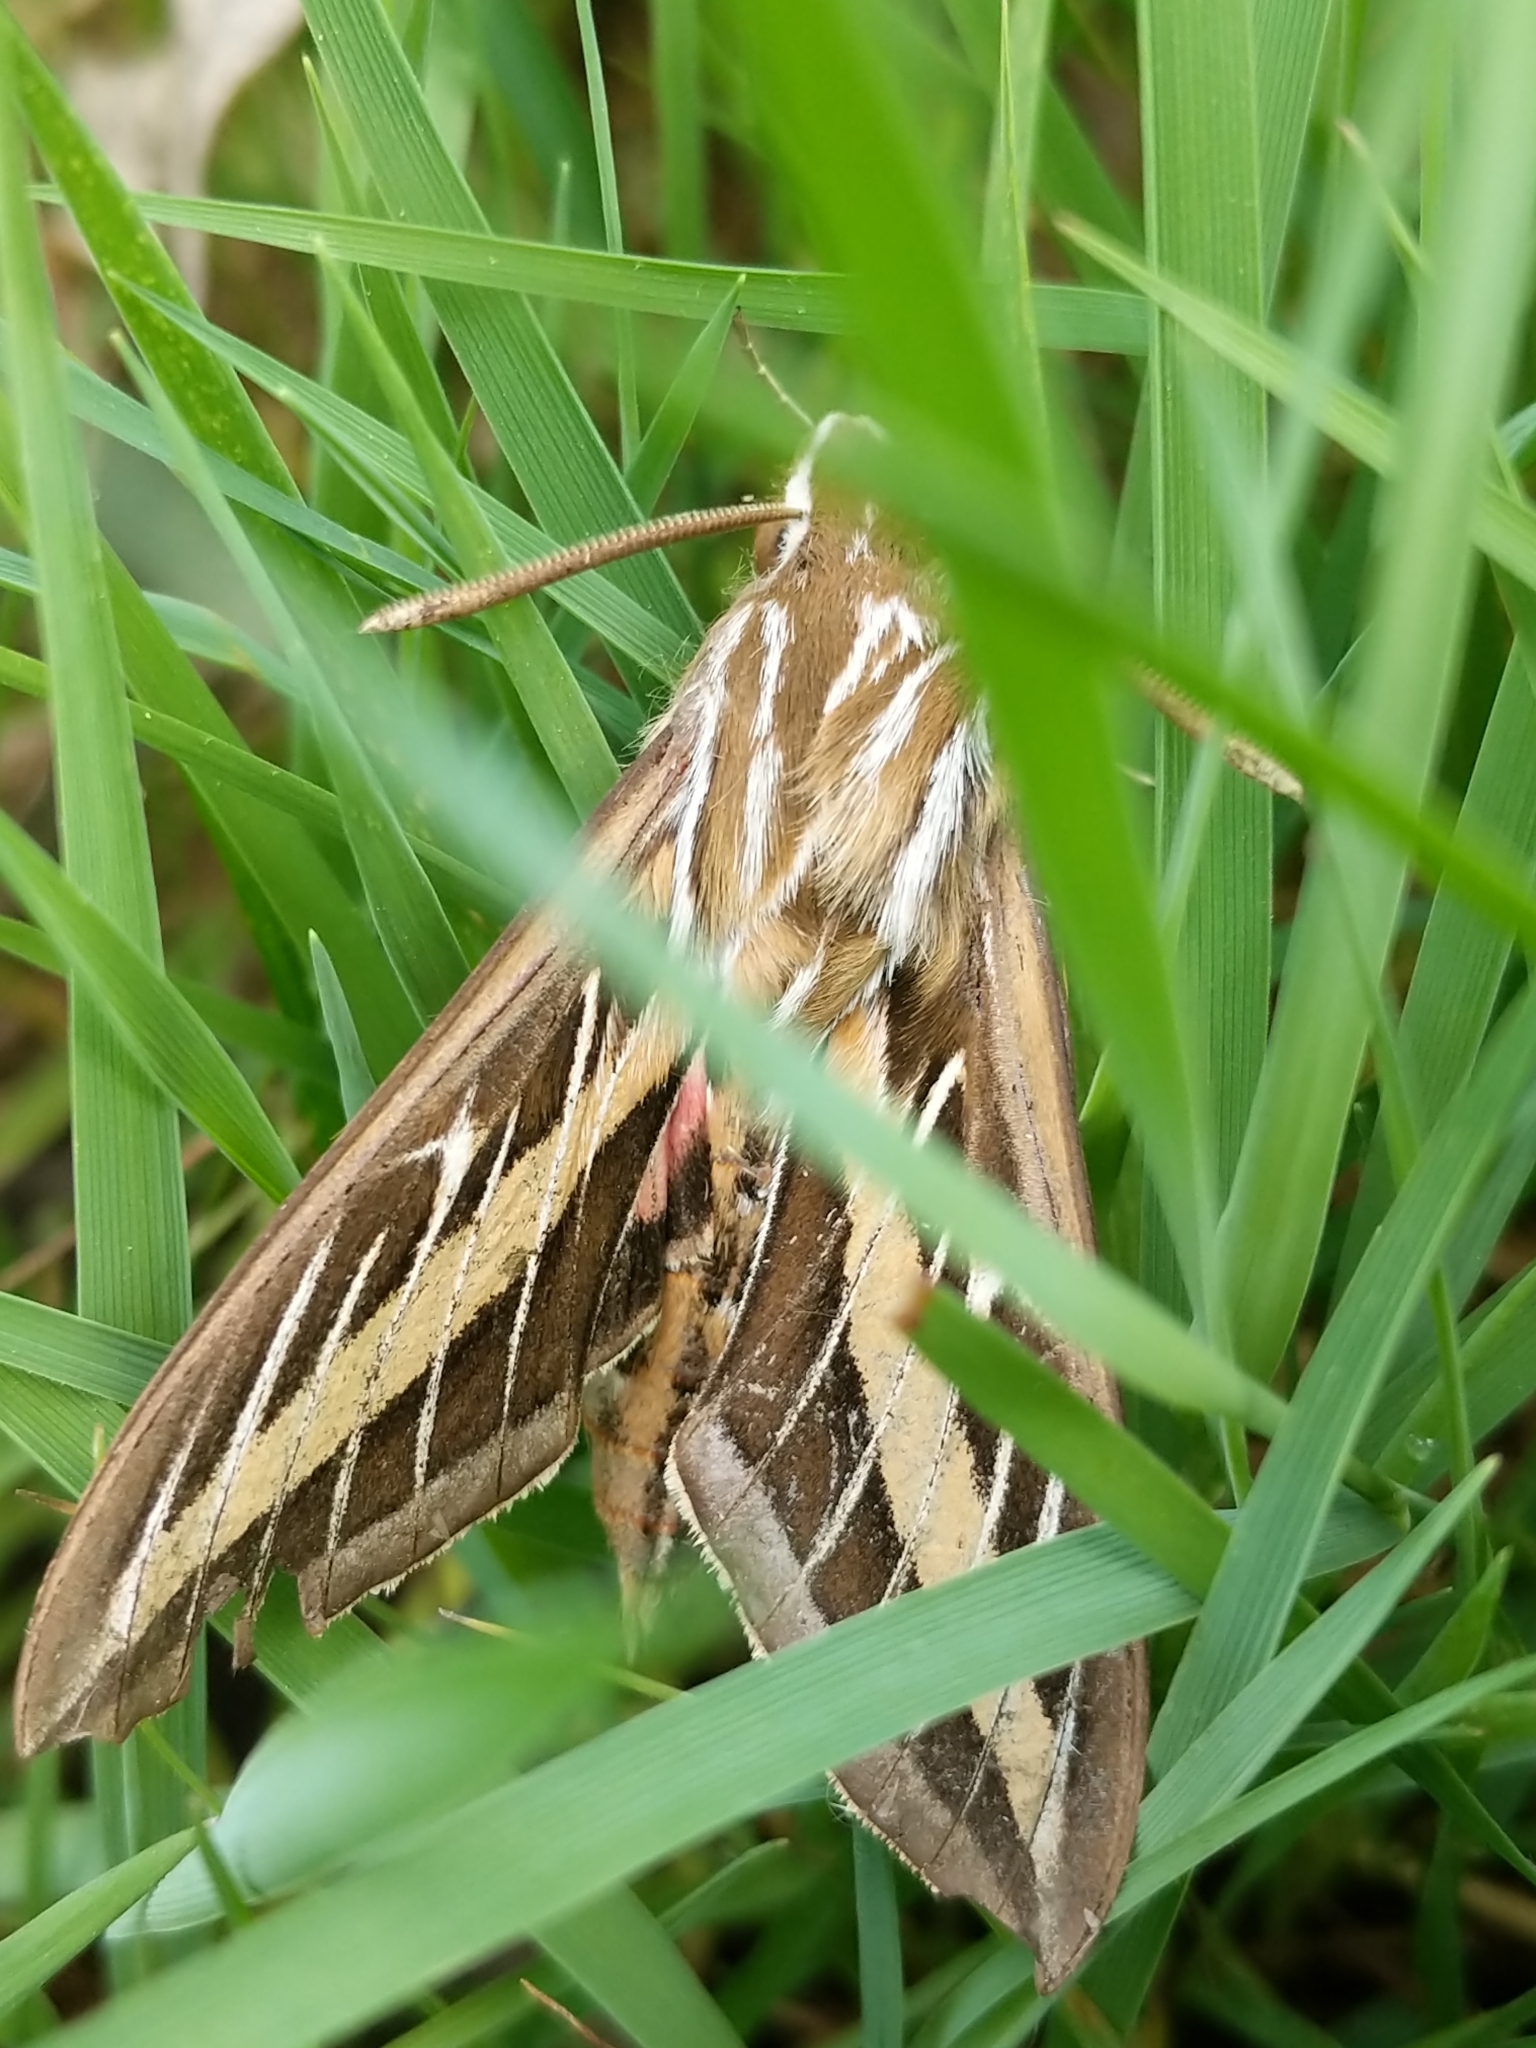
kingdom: Animalia
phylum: Arthropoda
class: Insecta
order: Lepidoptera
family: Sphingidae
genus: Hyles
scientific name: Hyles lineata
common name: White-lined sphinx
